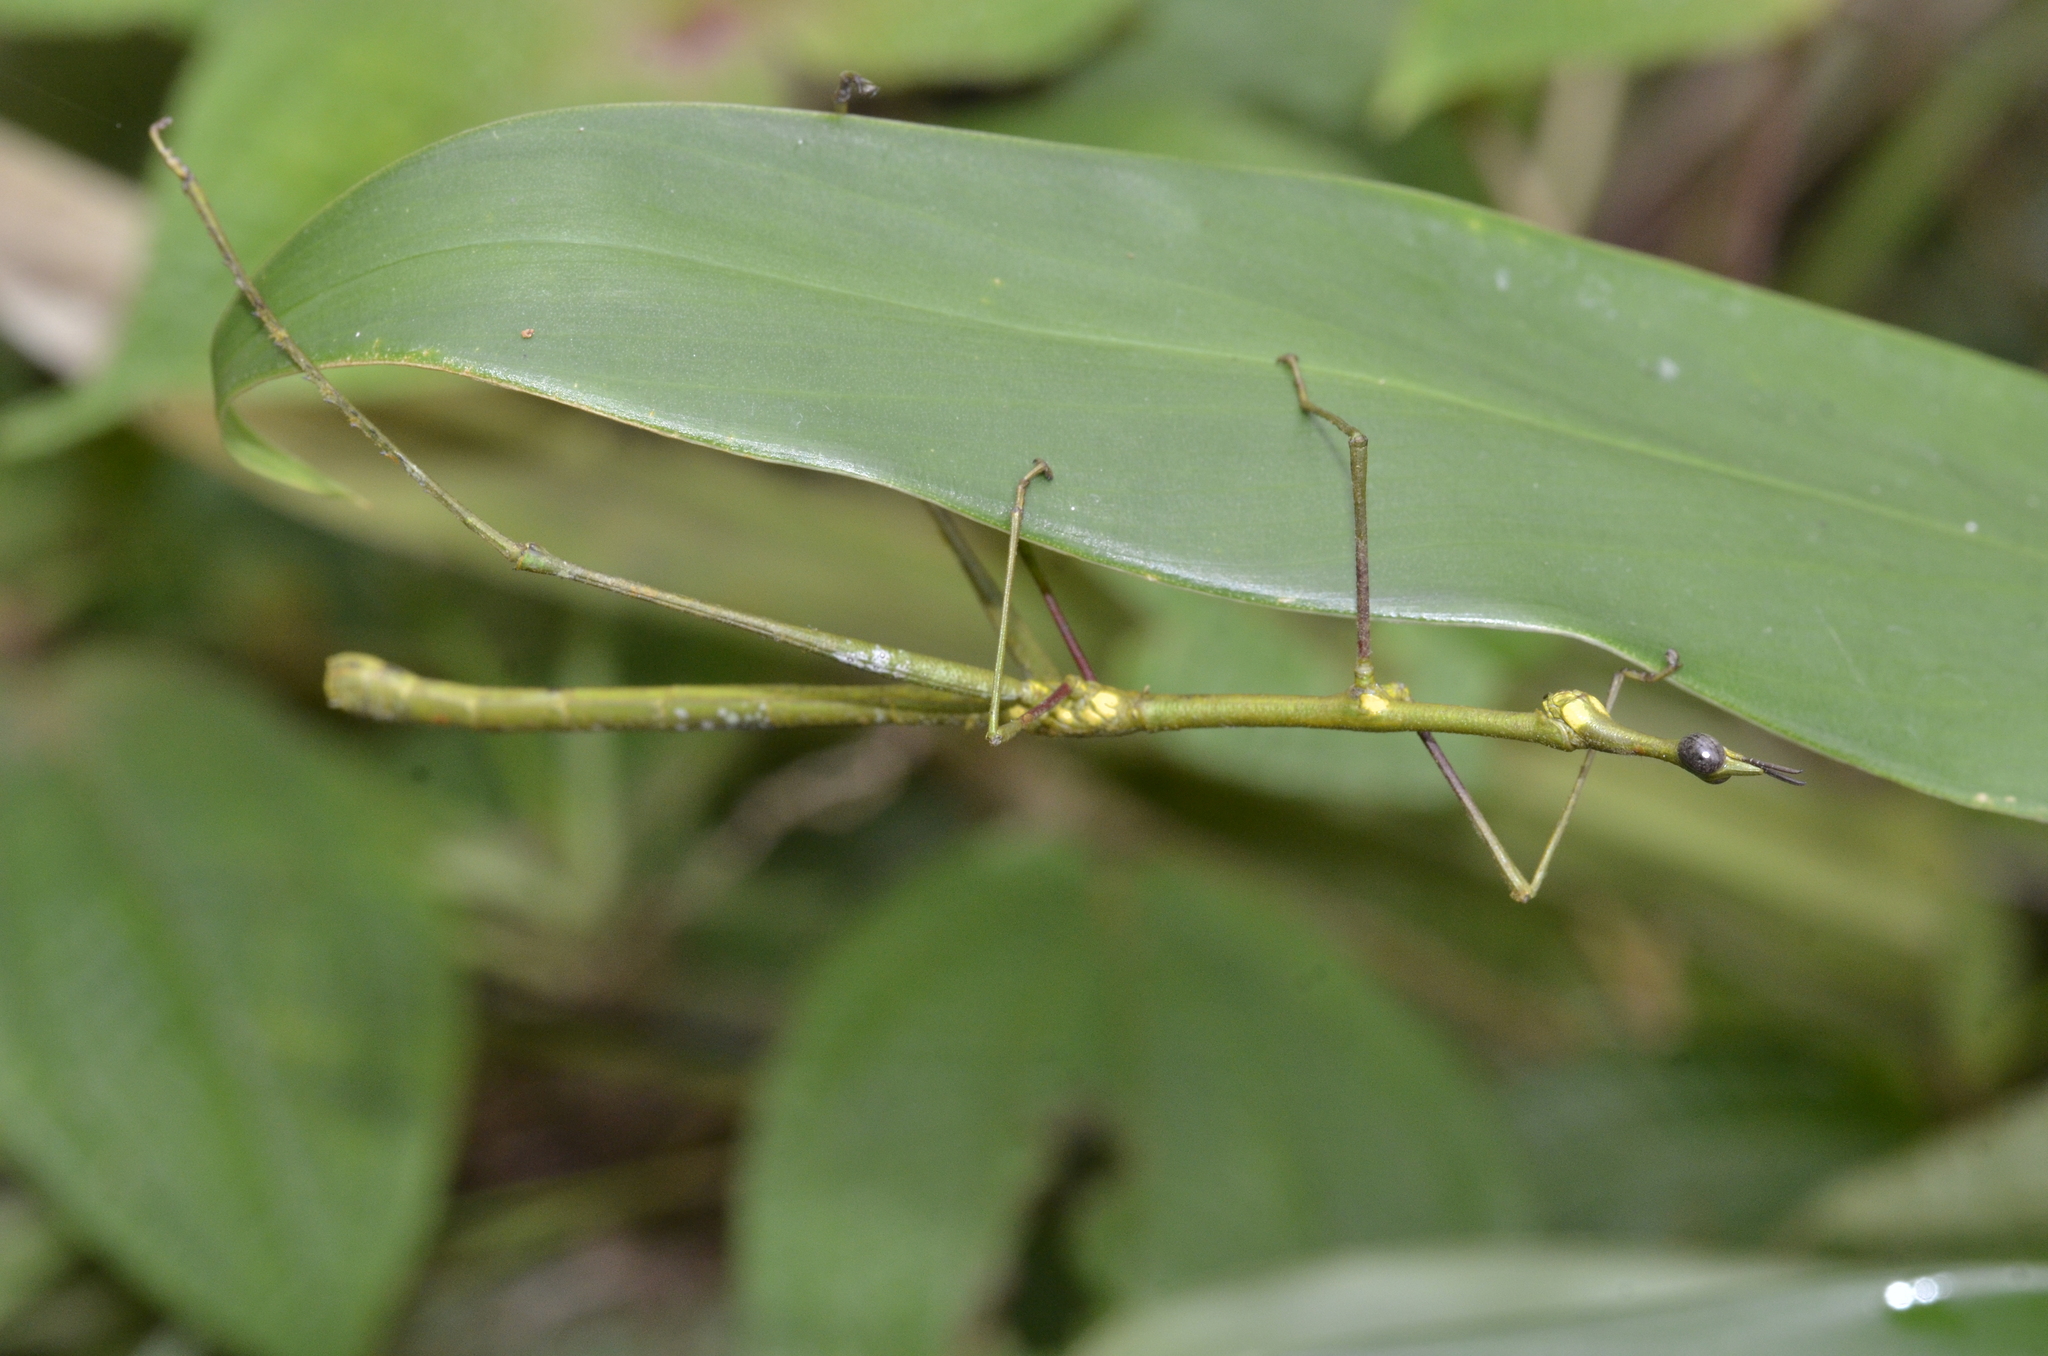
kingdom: Animalia
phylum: Arthropoda
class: Insecta
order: Orthoptera
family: Proscopiidae
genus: Paraproscopia
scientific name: Paraproscopia riedei
